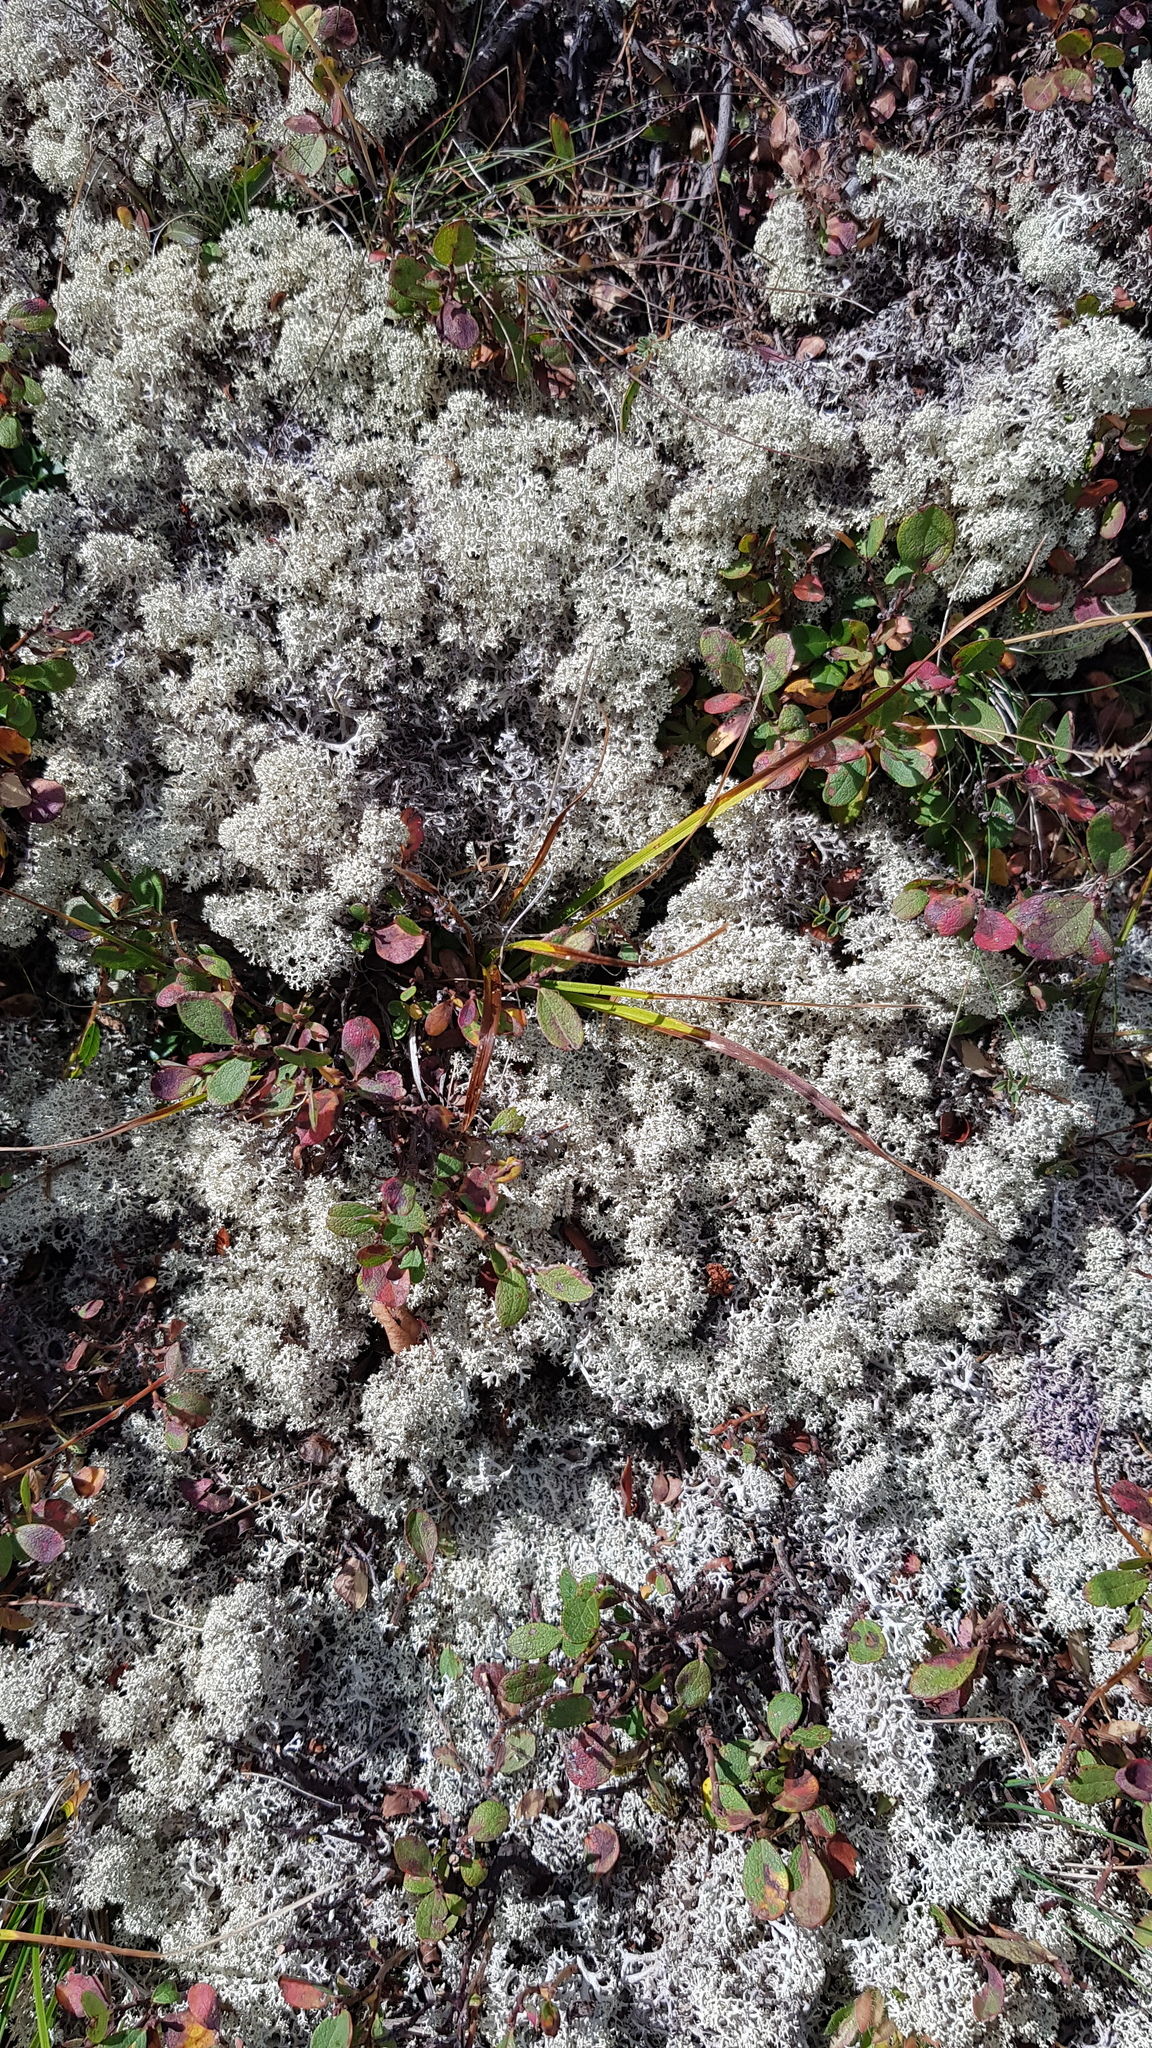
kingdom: Plantae
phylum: Tracheophyta
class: Magnoliopsida
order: Ericales
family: Ericaceae
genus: Vaccinium
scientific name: Vaccinium vitis-idaea
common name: Cowberry
